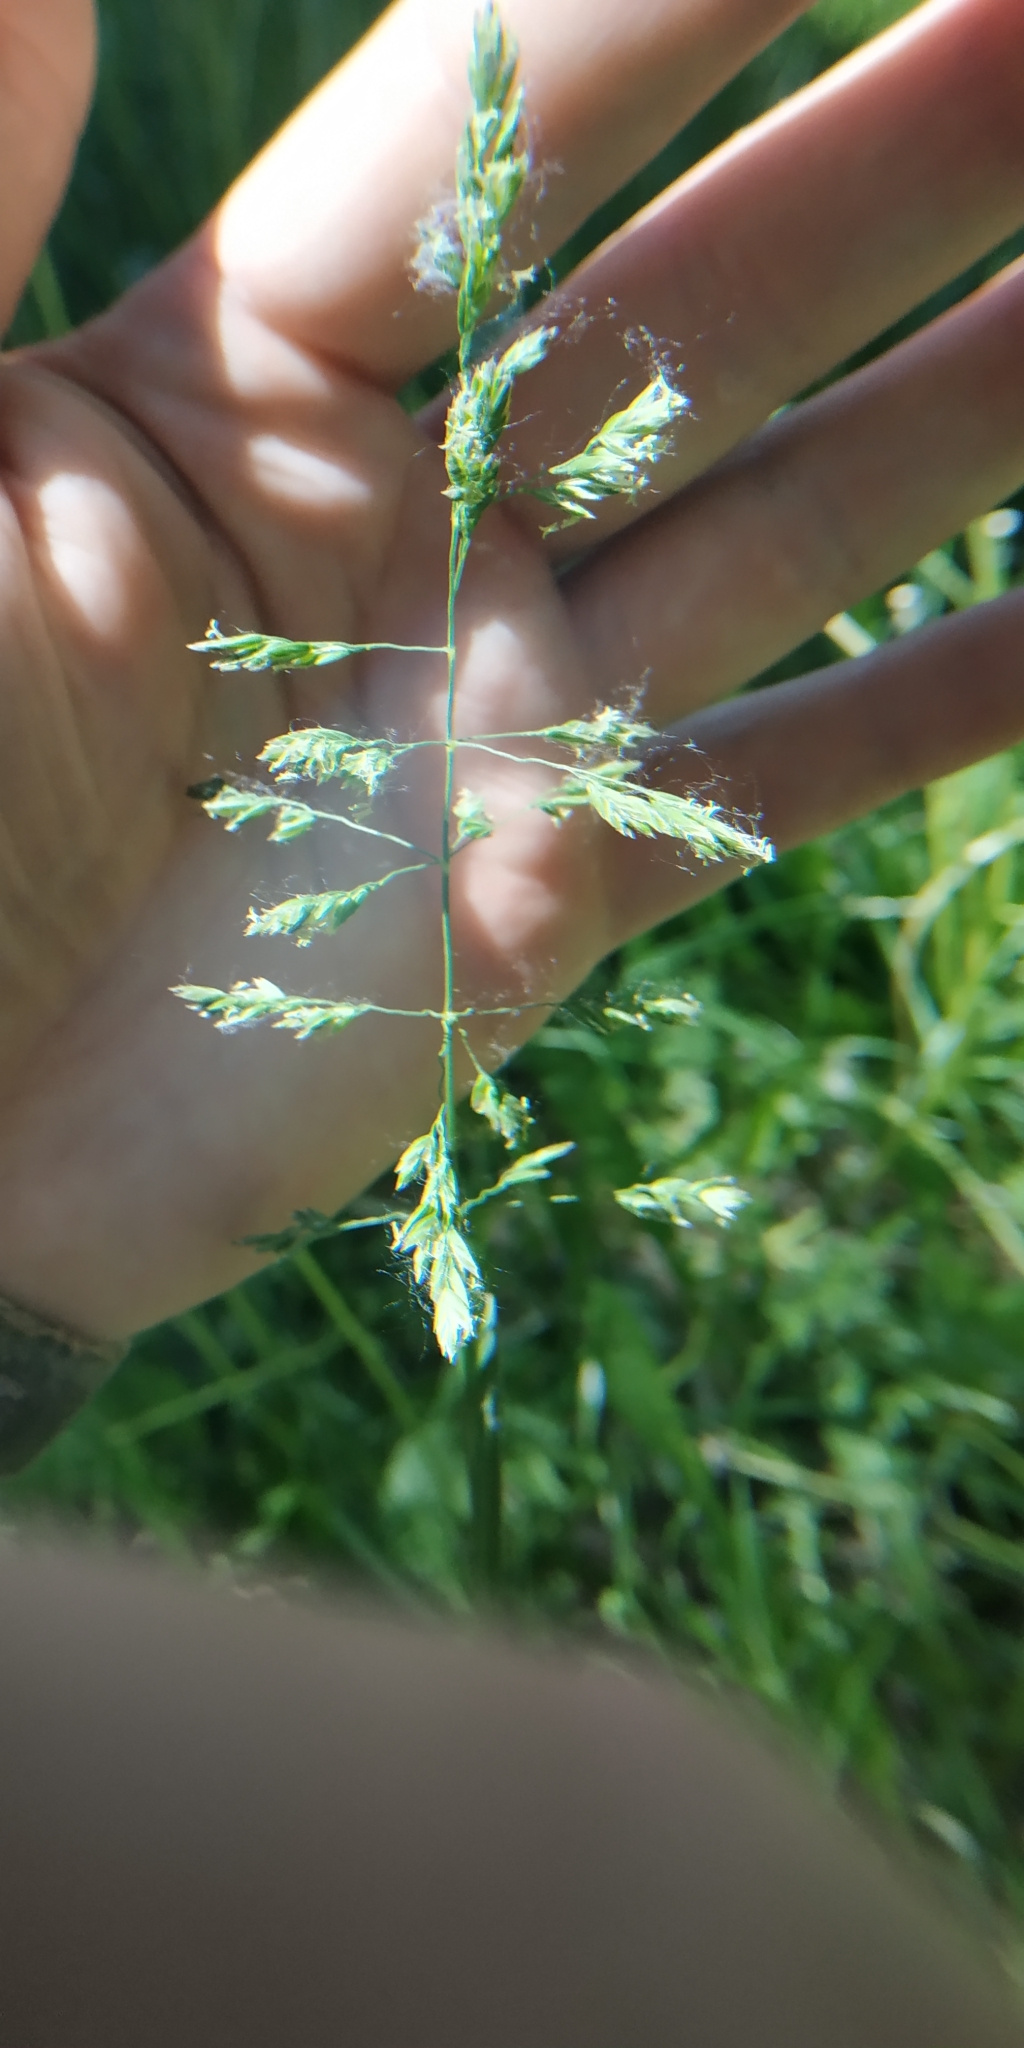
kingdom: Plantae
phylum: Tracheophyta
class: Liliopsida
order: Poales
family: Poaceae
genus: Poa
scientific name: Poa pratensis
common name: Kentucky bluegrass
